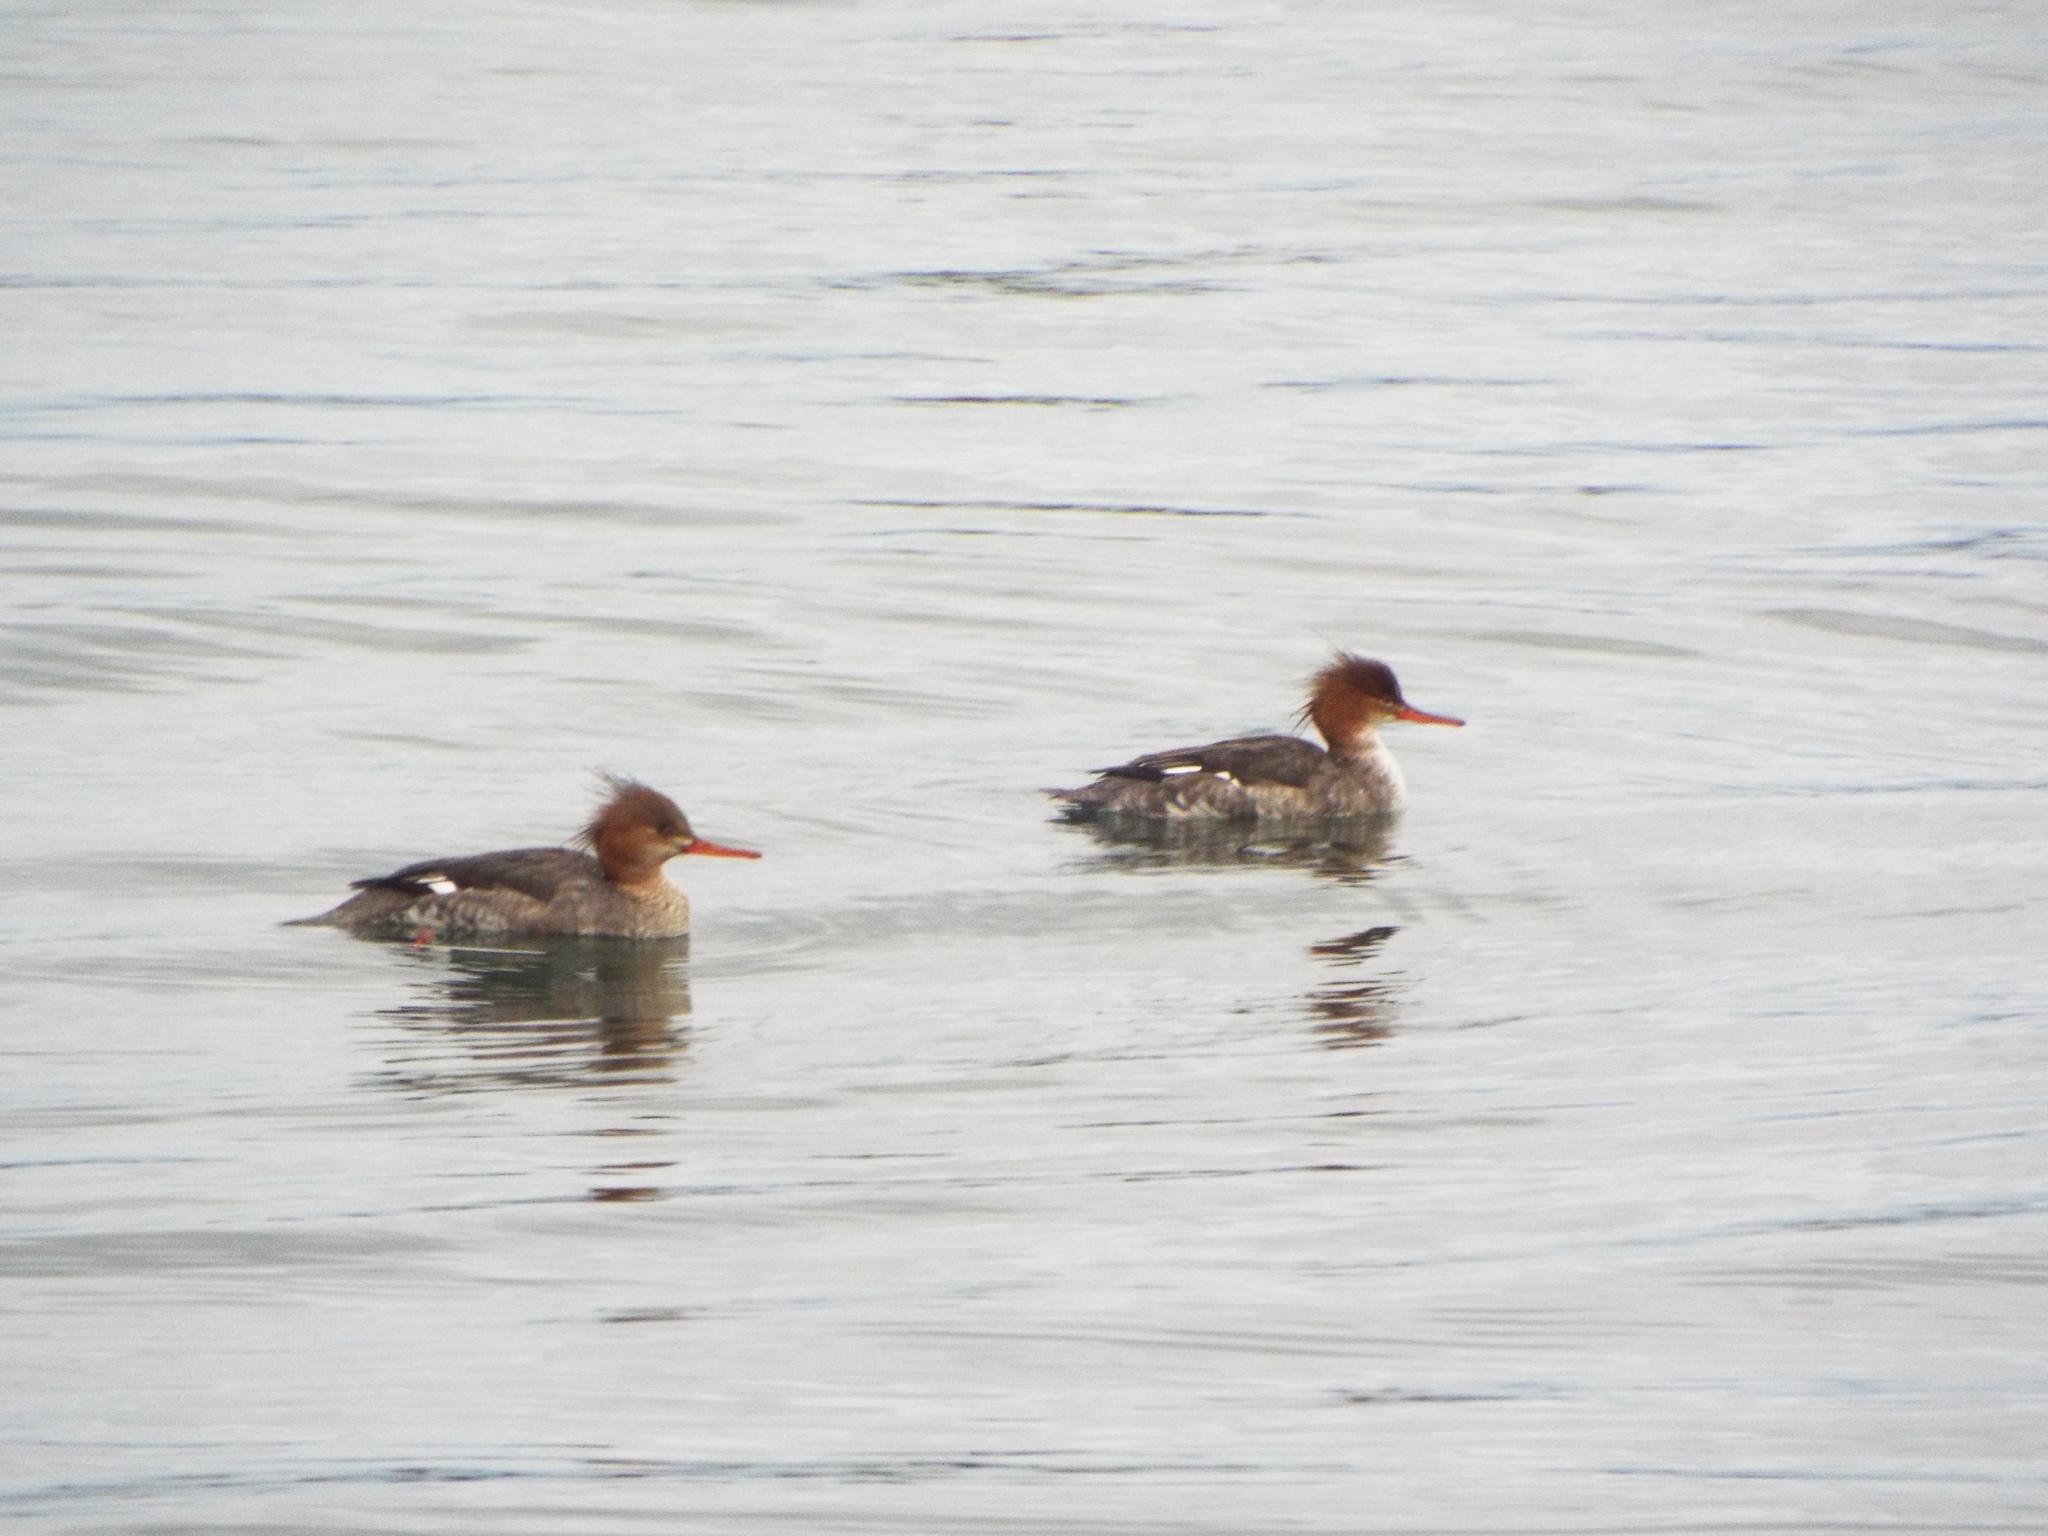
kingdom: Animalia
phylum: Chordata
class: Aves
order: Anseriformes
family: Anatidae
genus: Mergus
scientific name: Mergus serrator
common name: Red-breasted merganser
